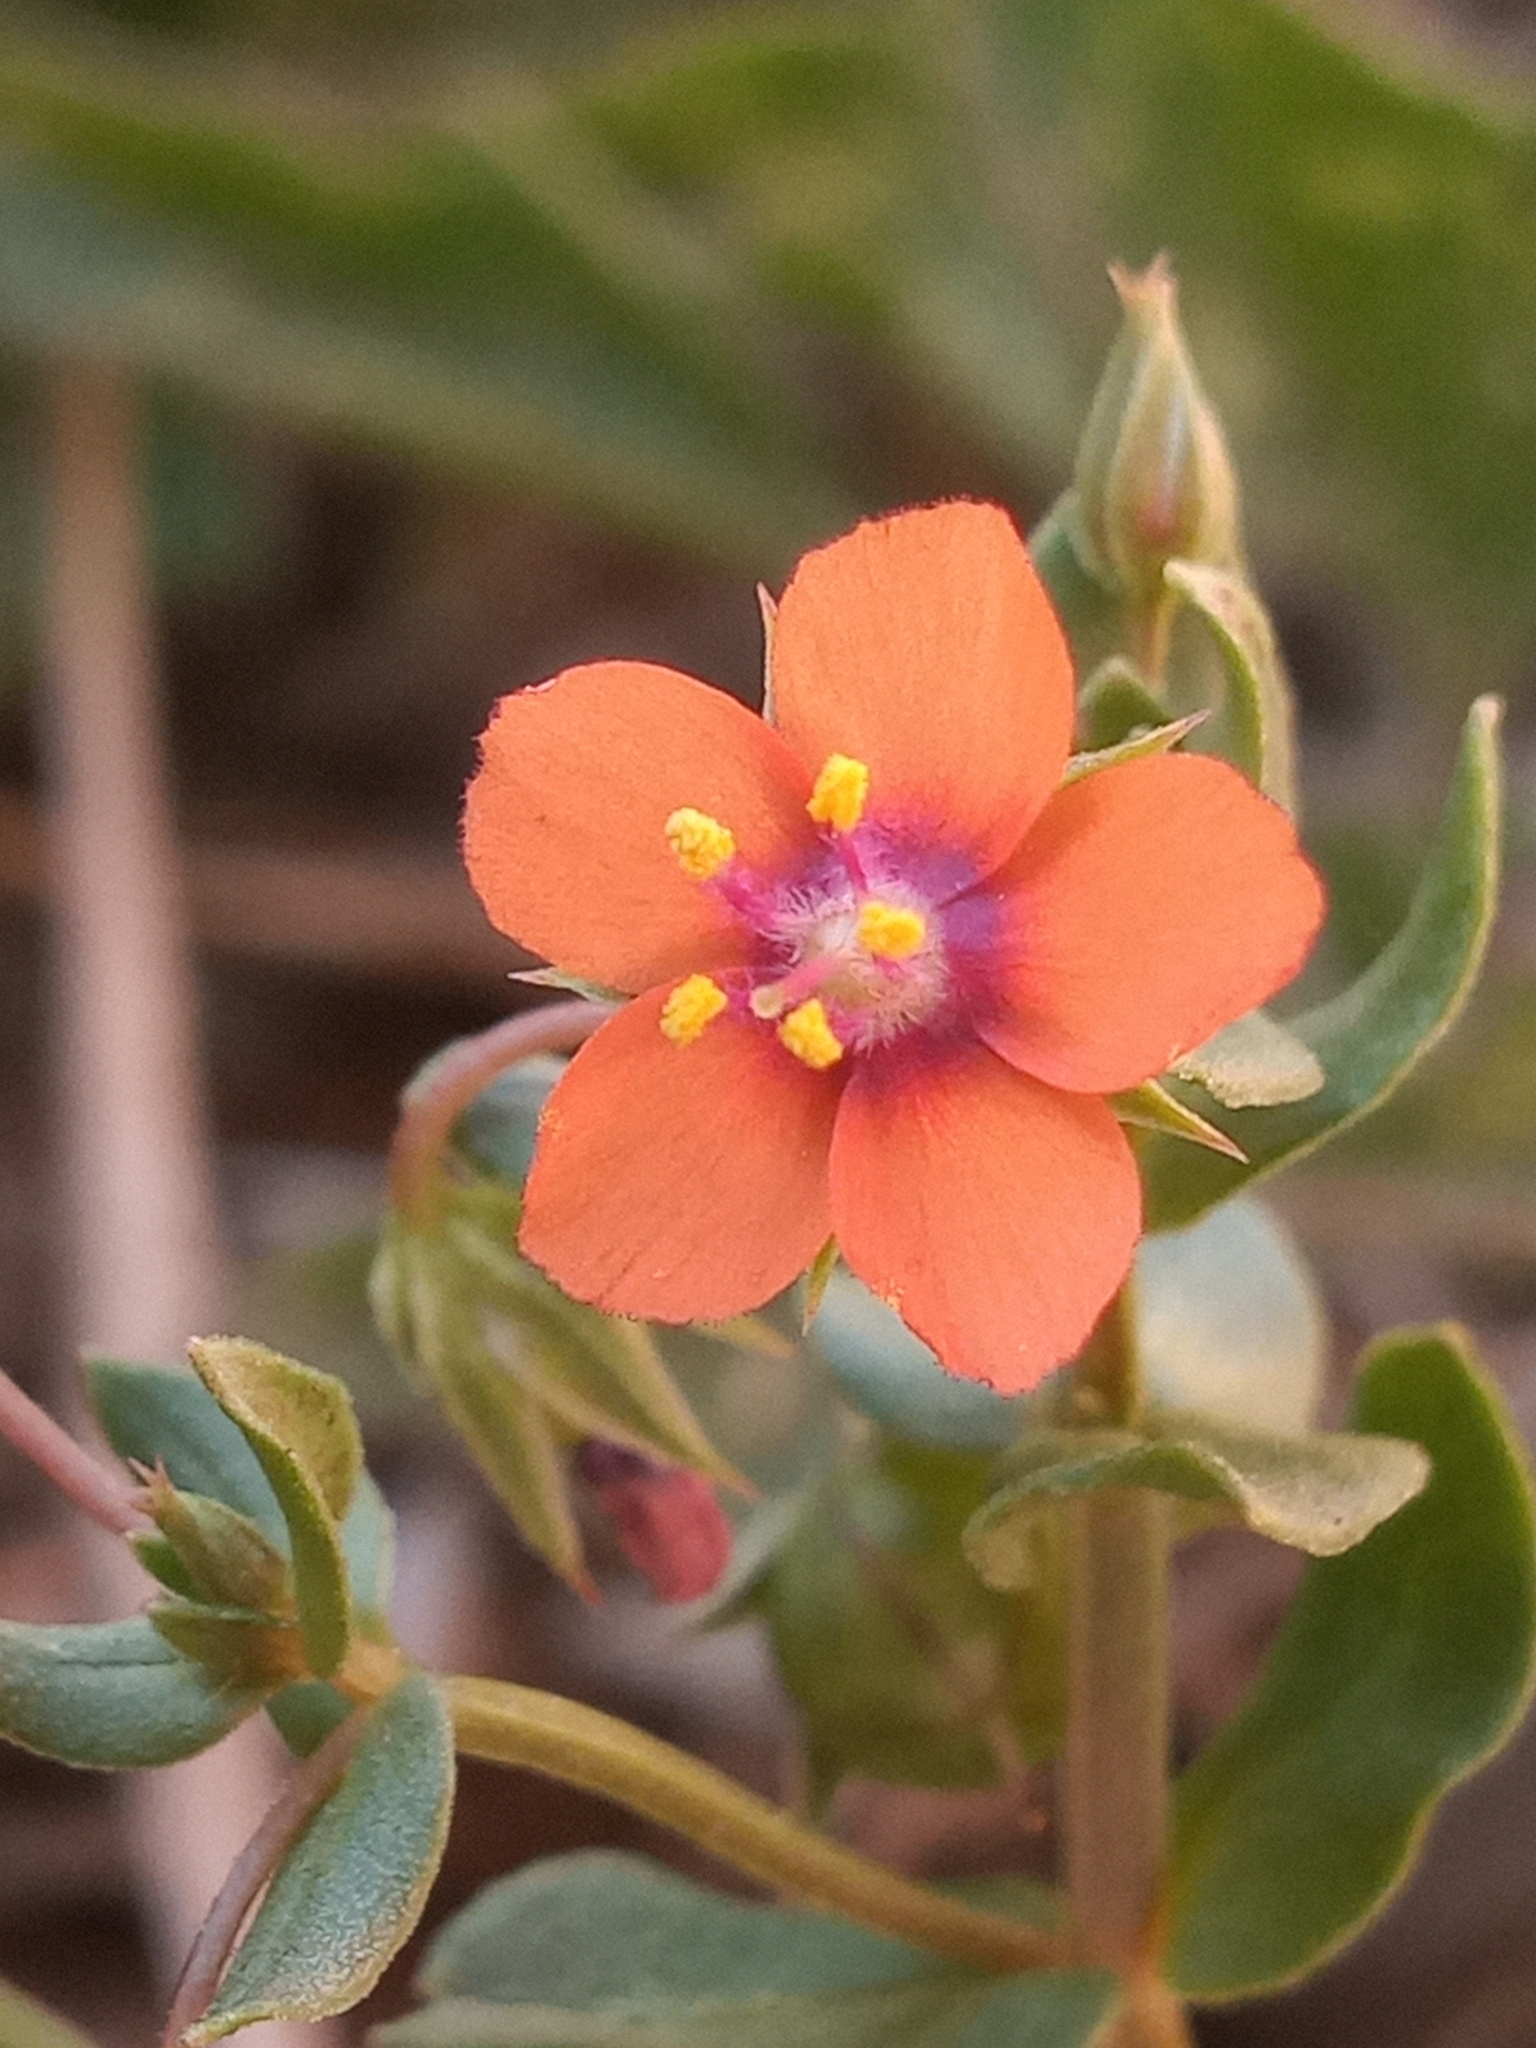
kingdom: Plantae
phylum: Tracheophyta
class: Magnoliopsida
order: Ericales
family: Primulaceae
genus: Lysimachia
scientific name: Lysimachia arvensis
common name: Scarlet pimpernel
